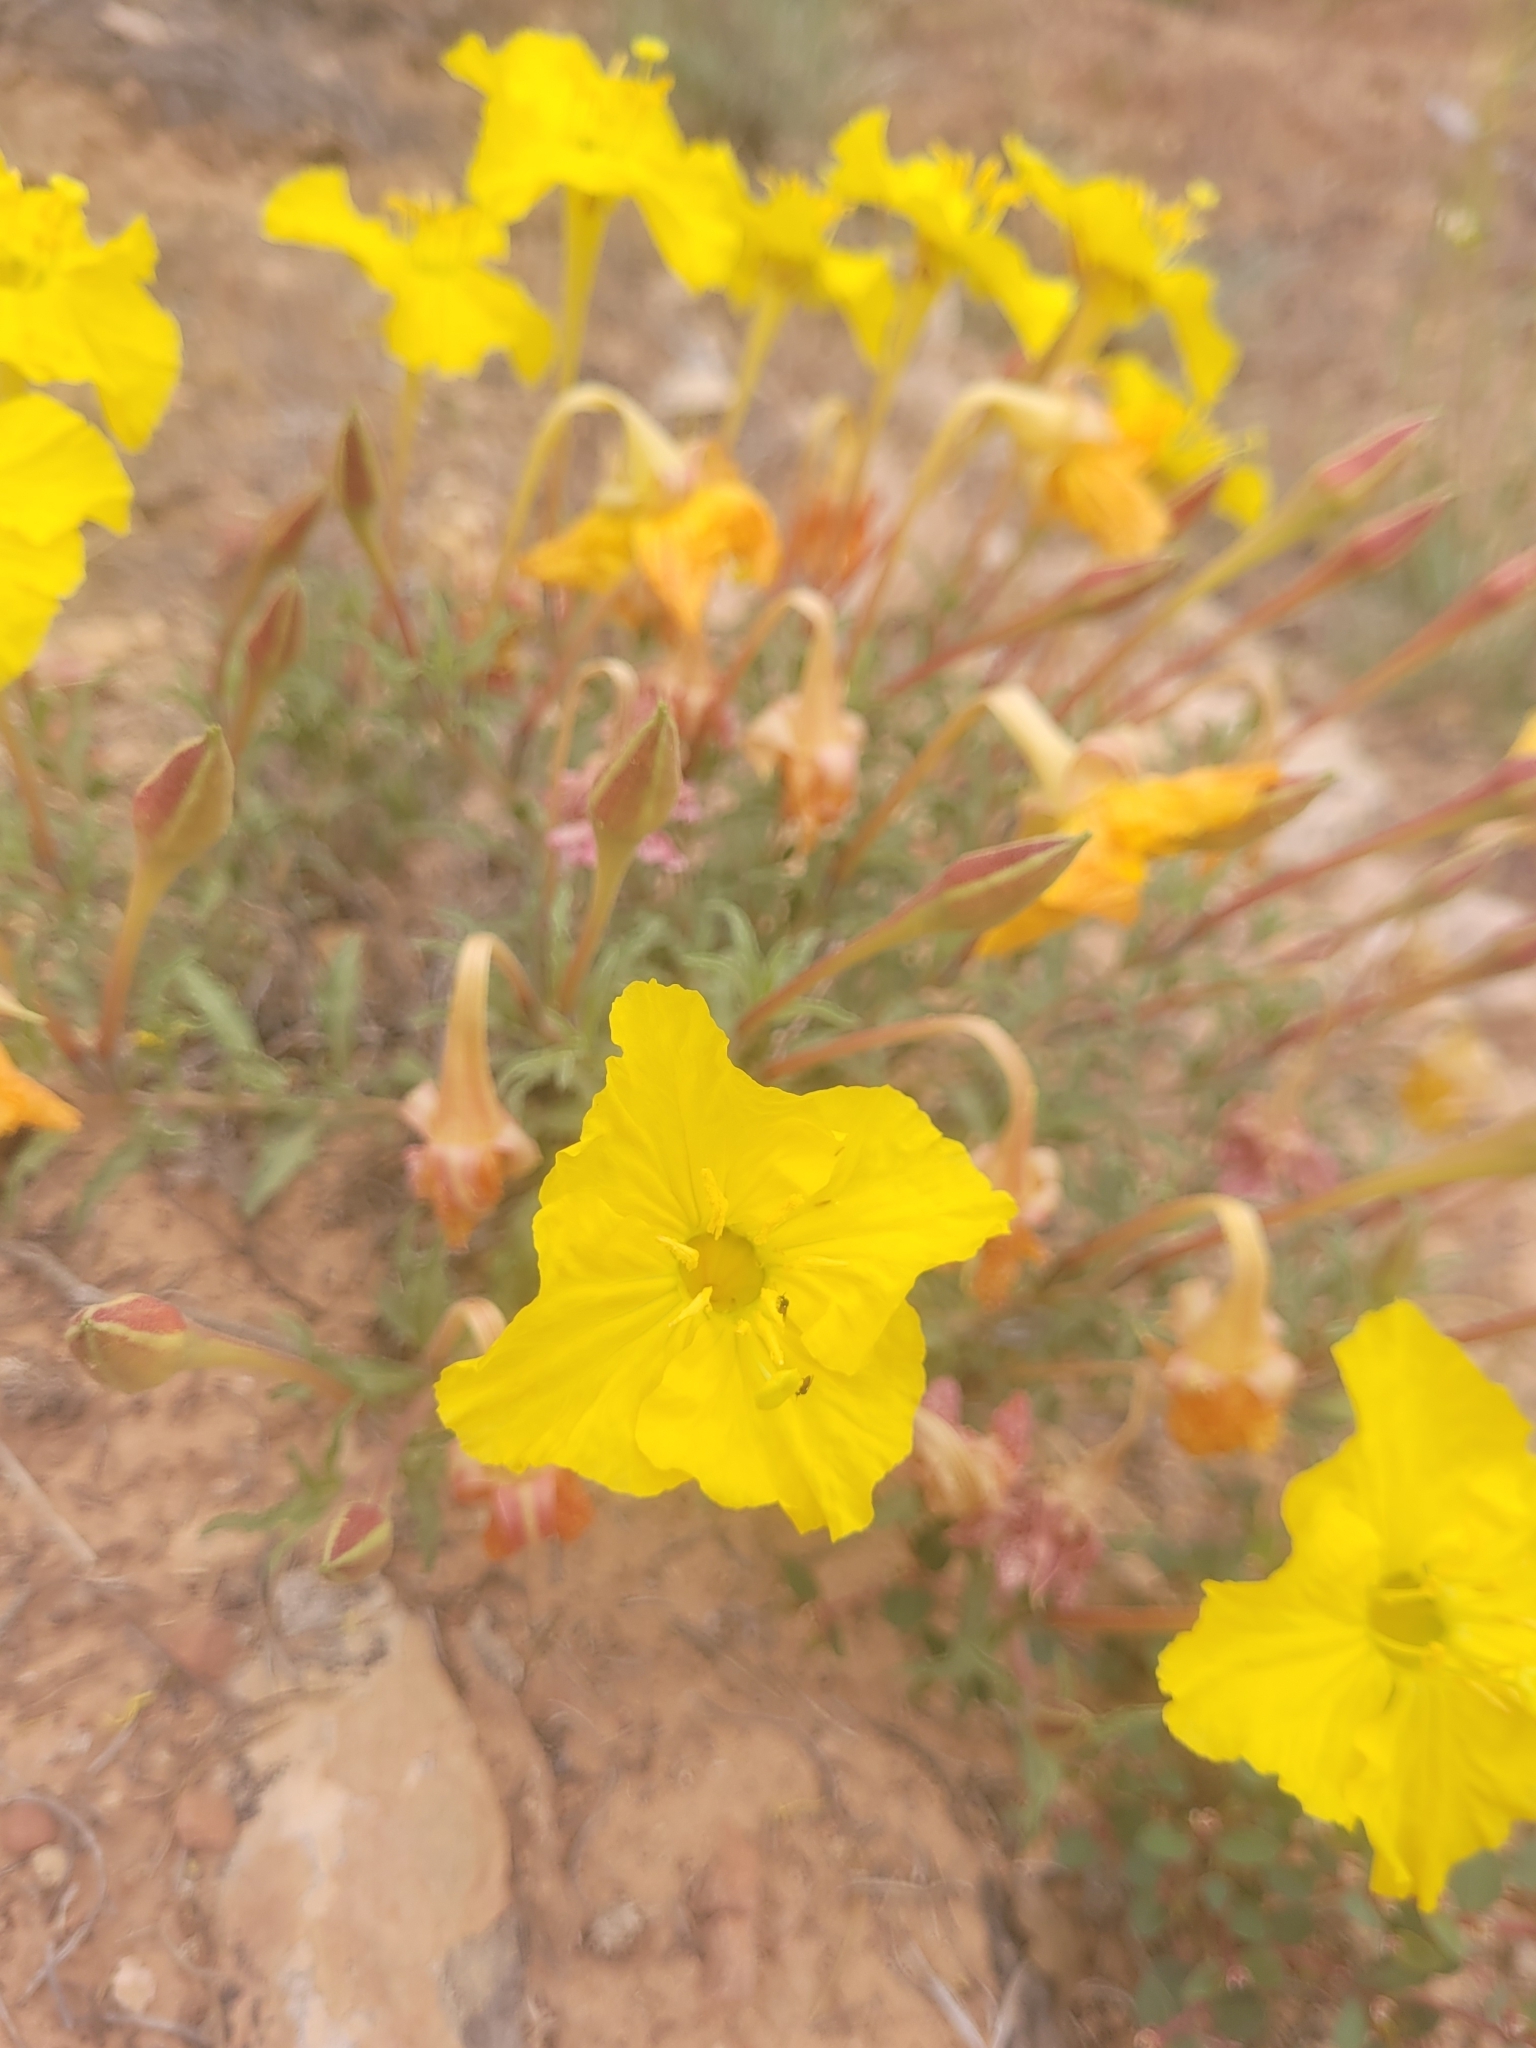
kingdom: Plantae
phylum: Tracheophyta
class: Magnoliopsida
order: Myrtales
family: Onagraceae
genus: Oenothera
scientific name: Oenothera lavandulifolia
